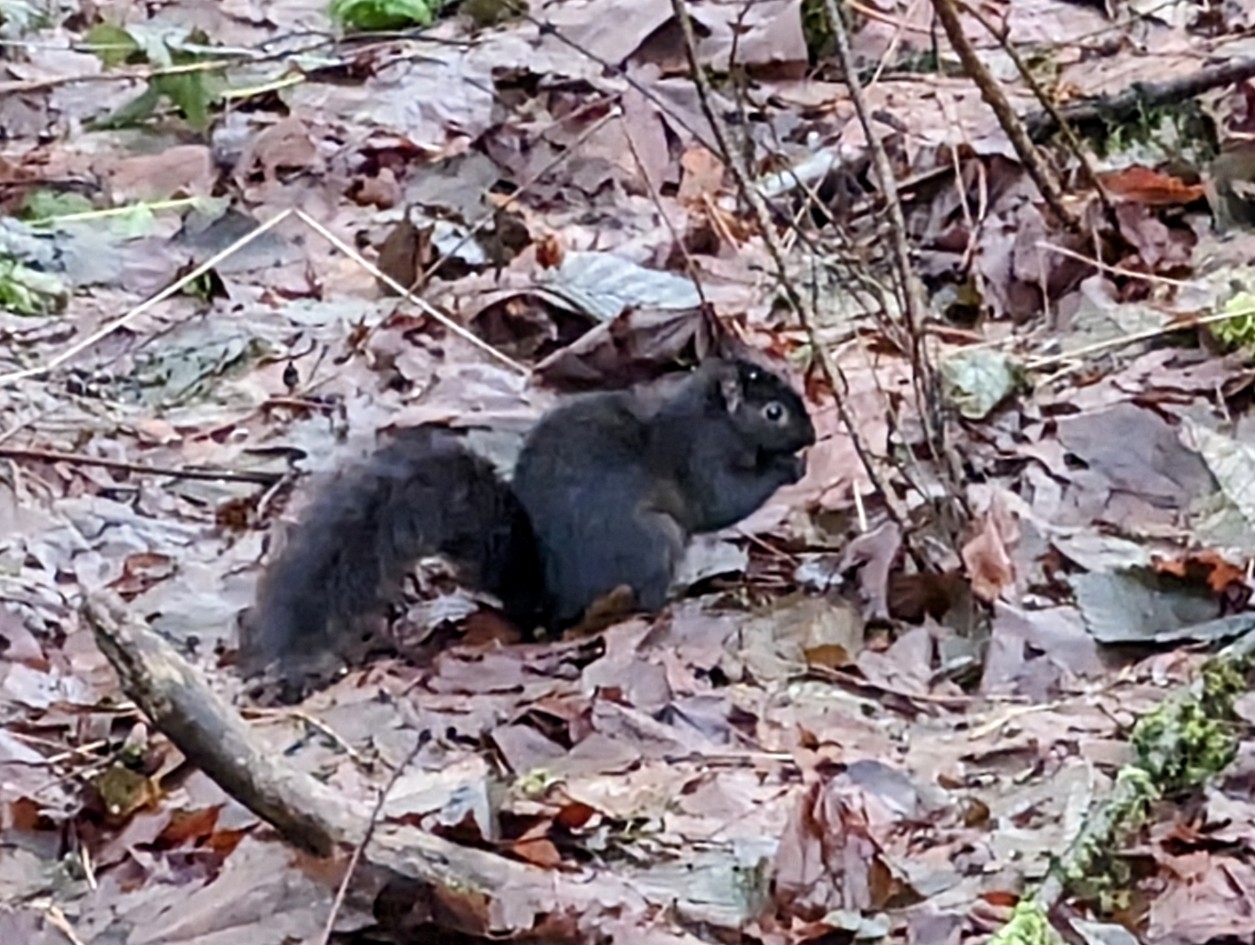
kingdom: Animalia
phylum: Chordata
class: Mammalia
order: Rodentia
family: Sciuridae
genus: Sciurus
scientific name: Sciurus carolinensis
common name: Eastern gray squirrel
